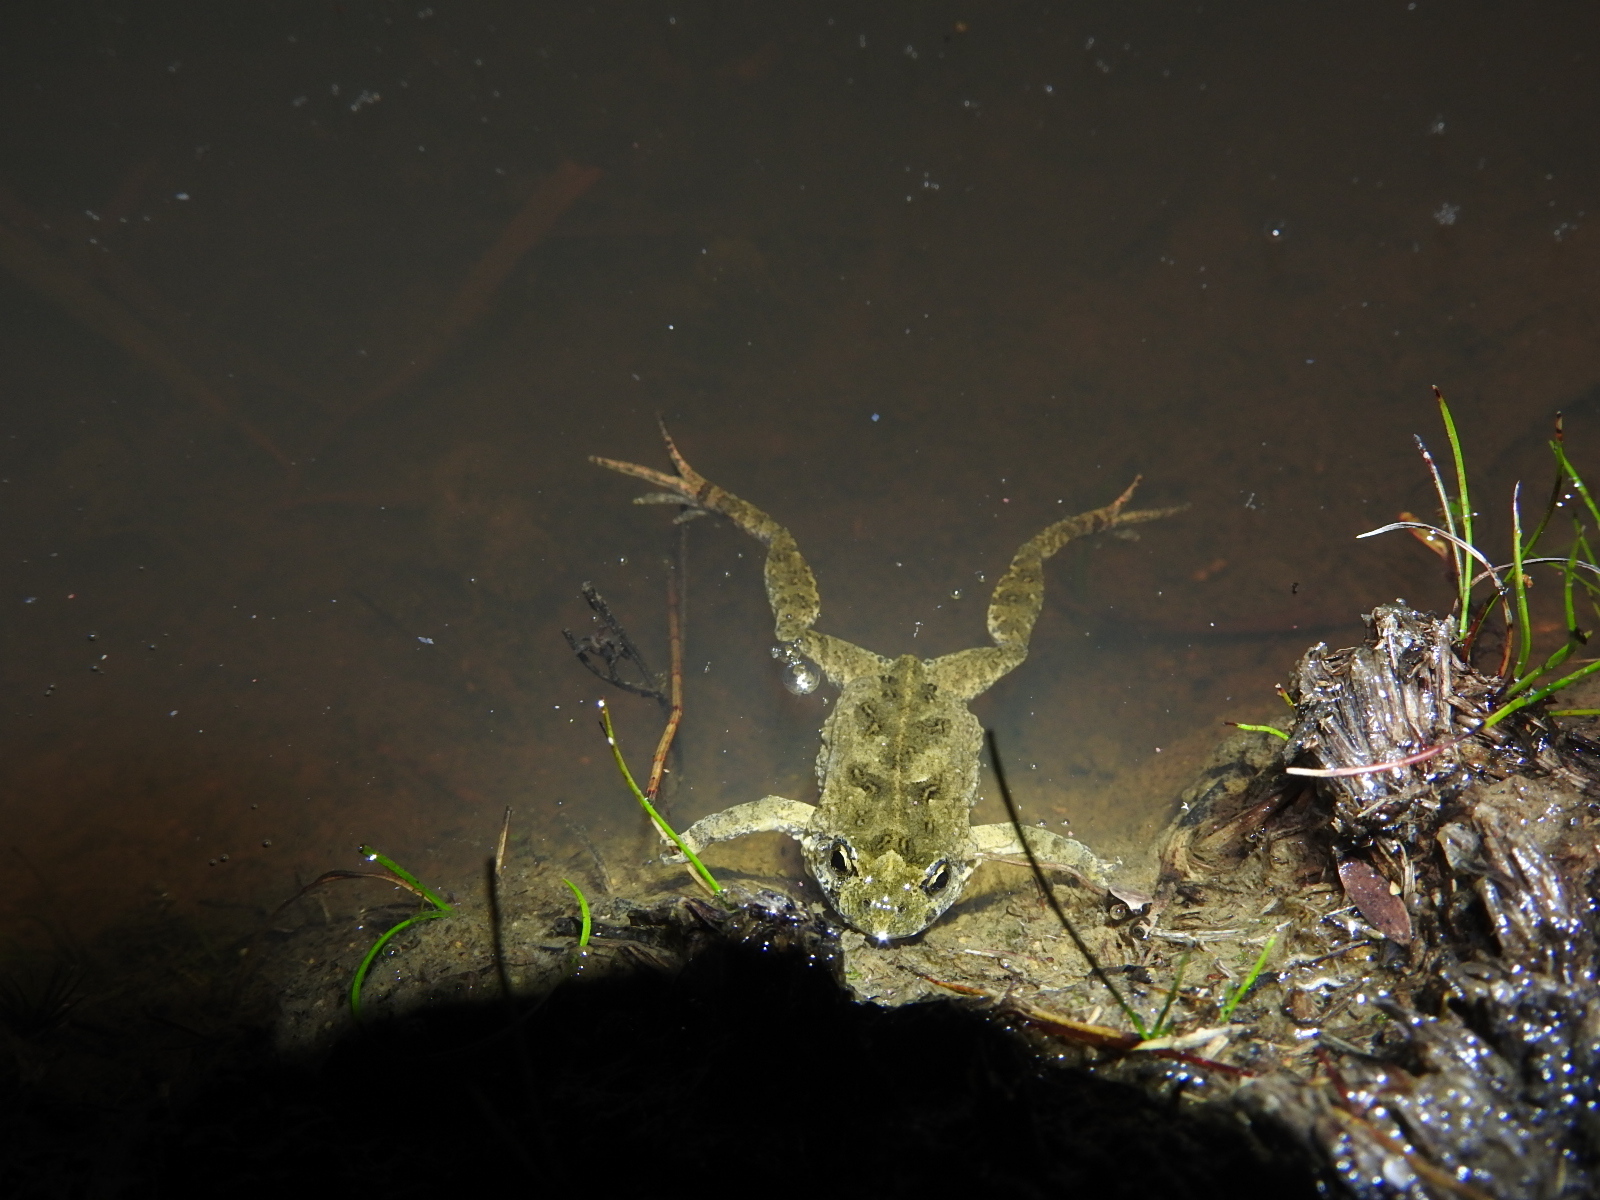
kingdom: Animalia
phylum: Chordata
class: Amphibia
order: Anura
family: Myobatrachidae
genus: Crinia
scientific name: Crinia signifera
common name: Brown froglet
